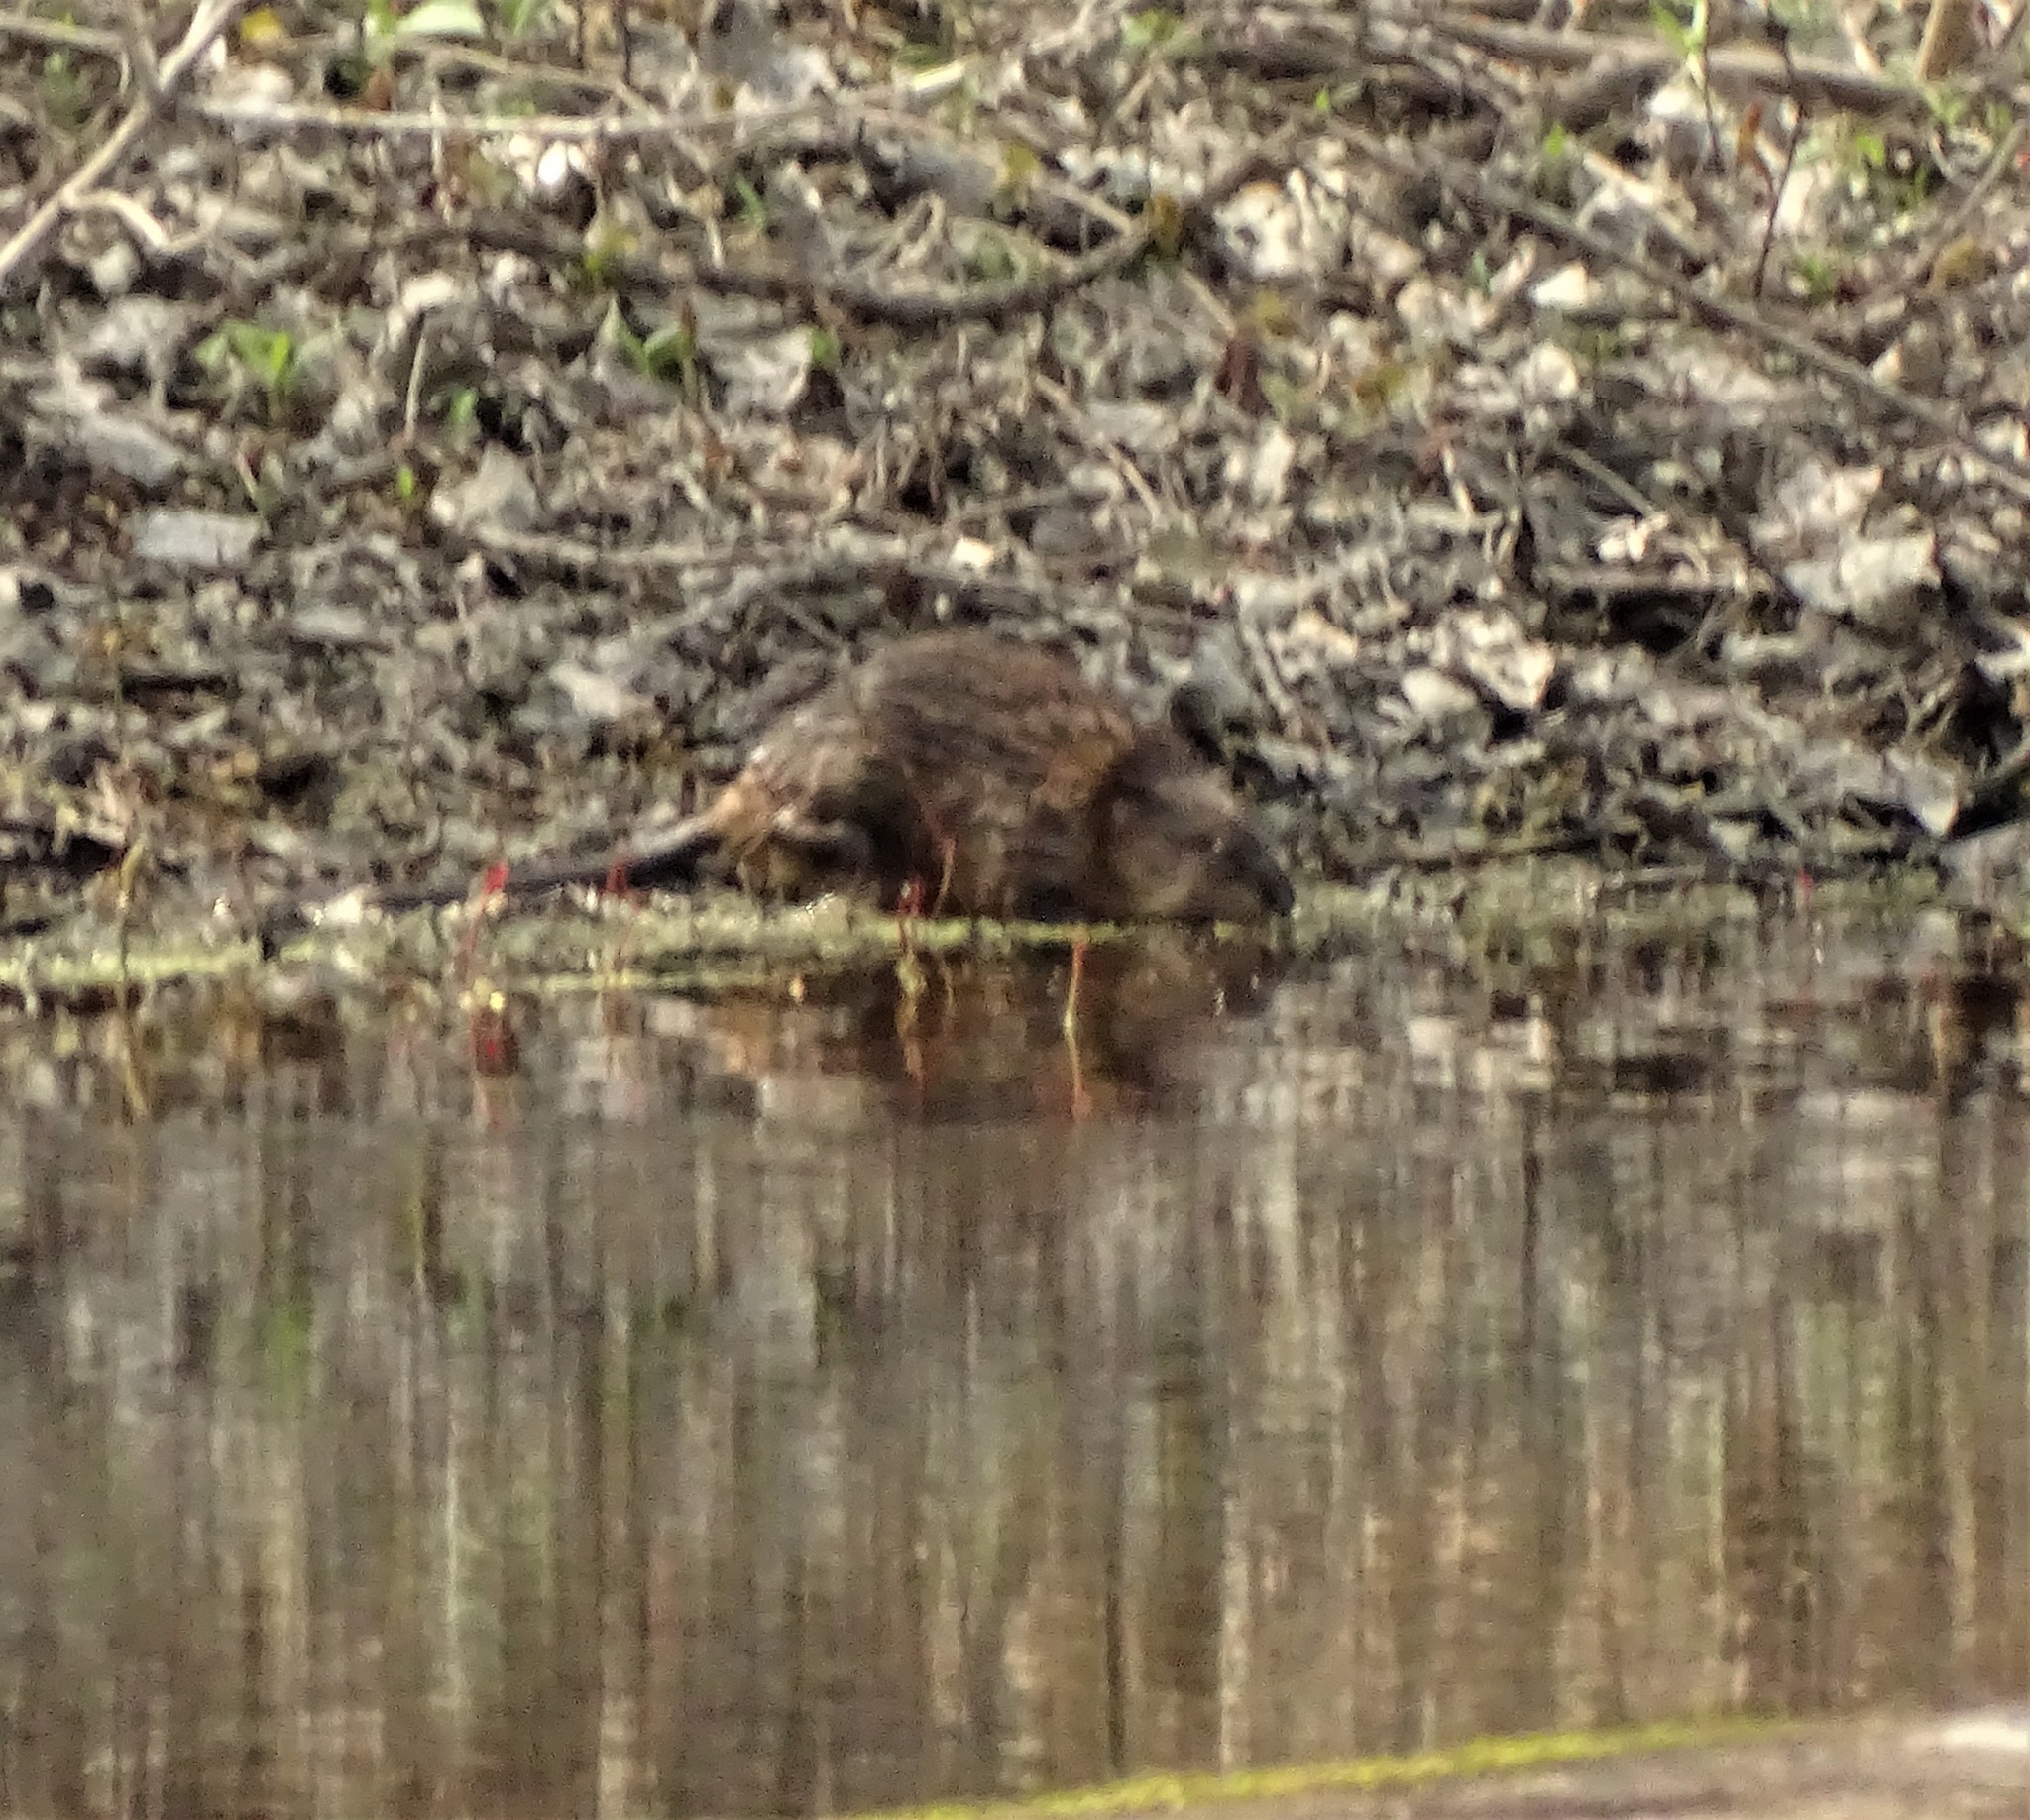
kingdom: Animalia
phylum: Chordata
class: Mammalia
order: Rodentia
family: Cricetidae
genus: Ondatra
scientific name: Ondatra zibethicus
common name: Muskrat
